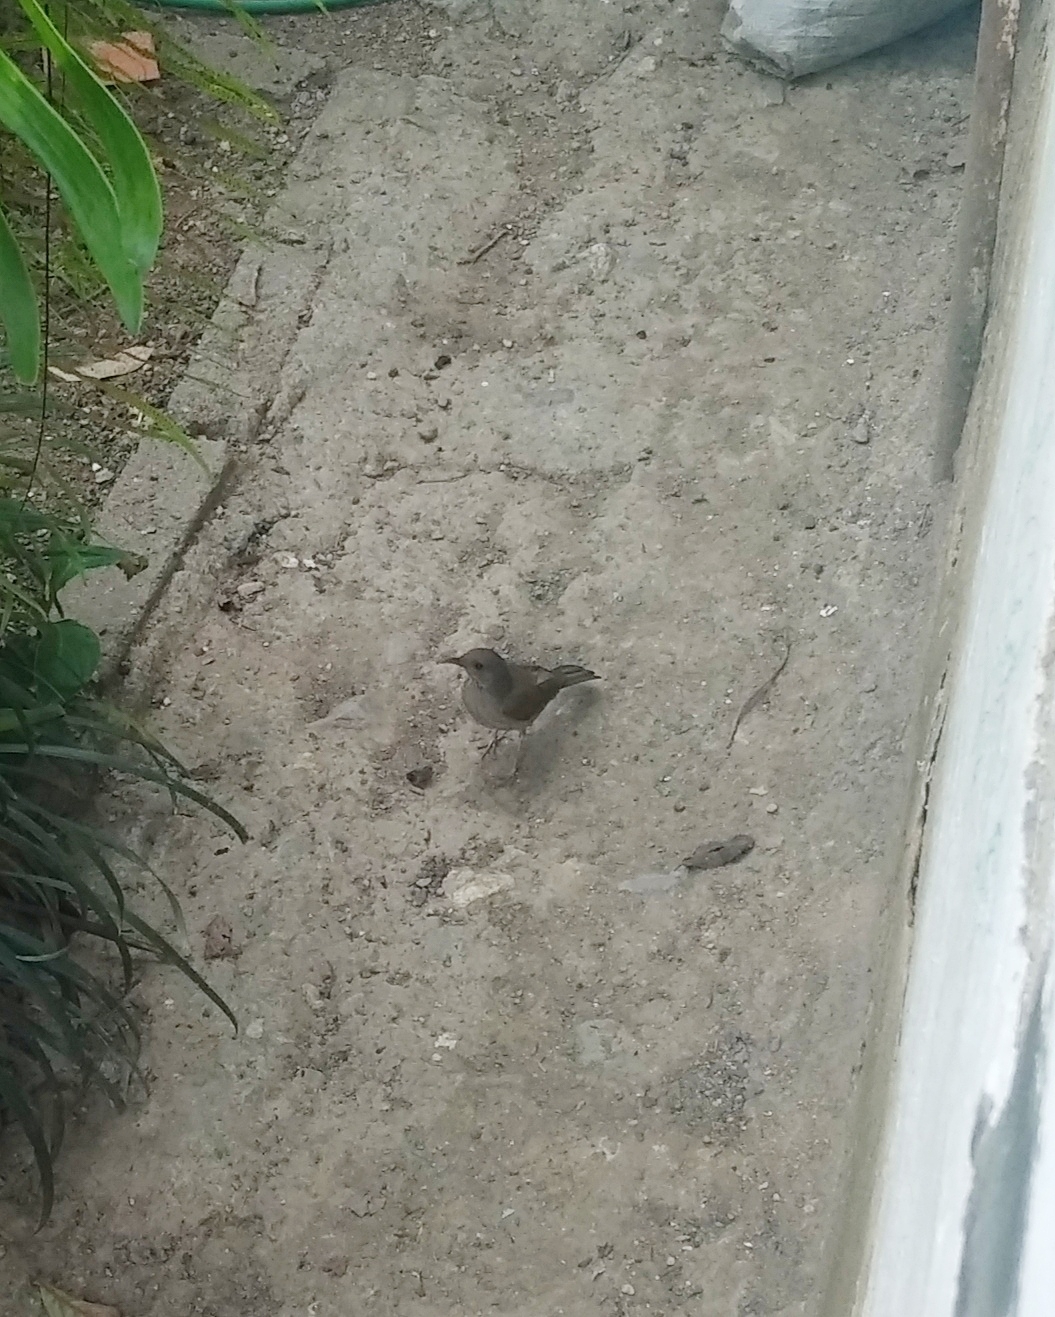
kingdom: Animalia
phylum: Chordata
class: Aves
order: Passeriformes
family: Turdidae
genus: Turdus
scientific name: Turdus leucomelas
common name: Pale-breasted thrush
